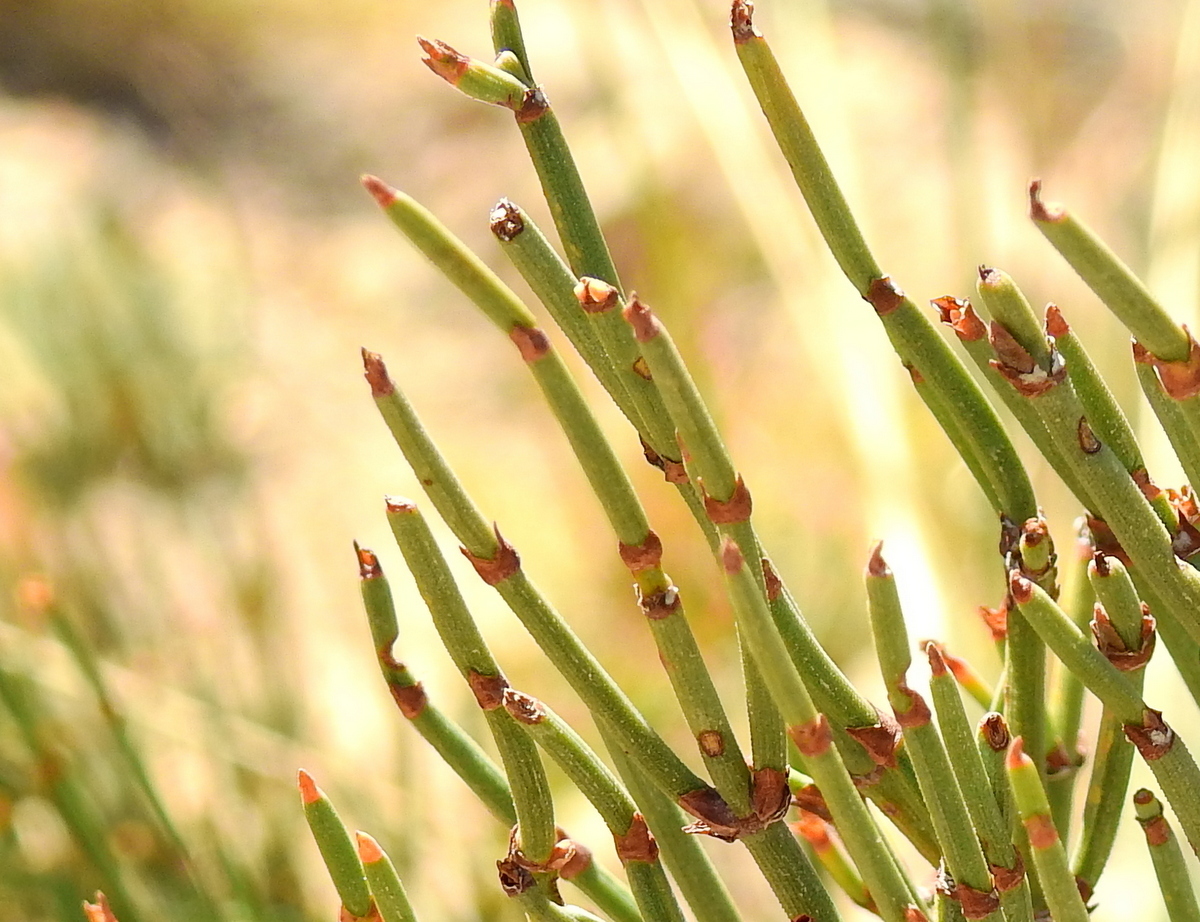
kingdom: Plantae
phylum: Tracheophyta
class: Gnetopsida
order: Ephedrales
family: Ephedraceae
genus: Ephedra
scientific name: Ephedra chilensis
